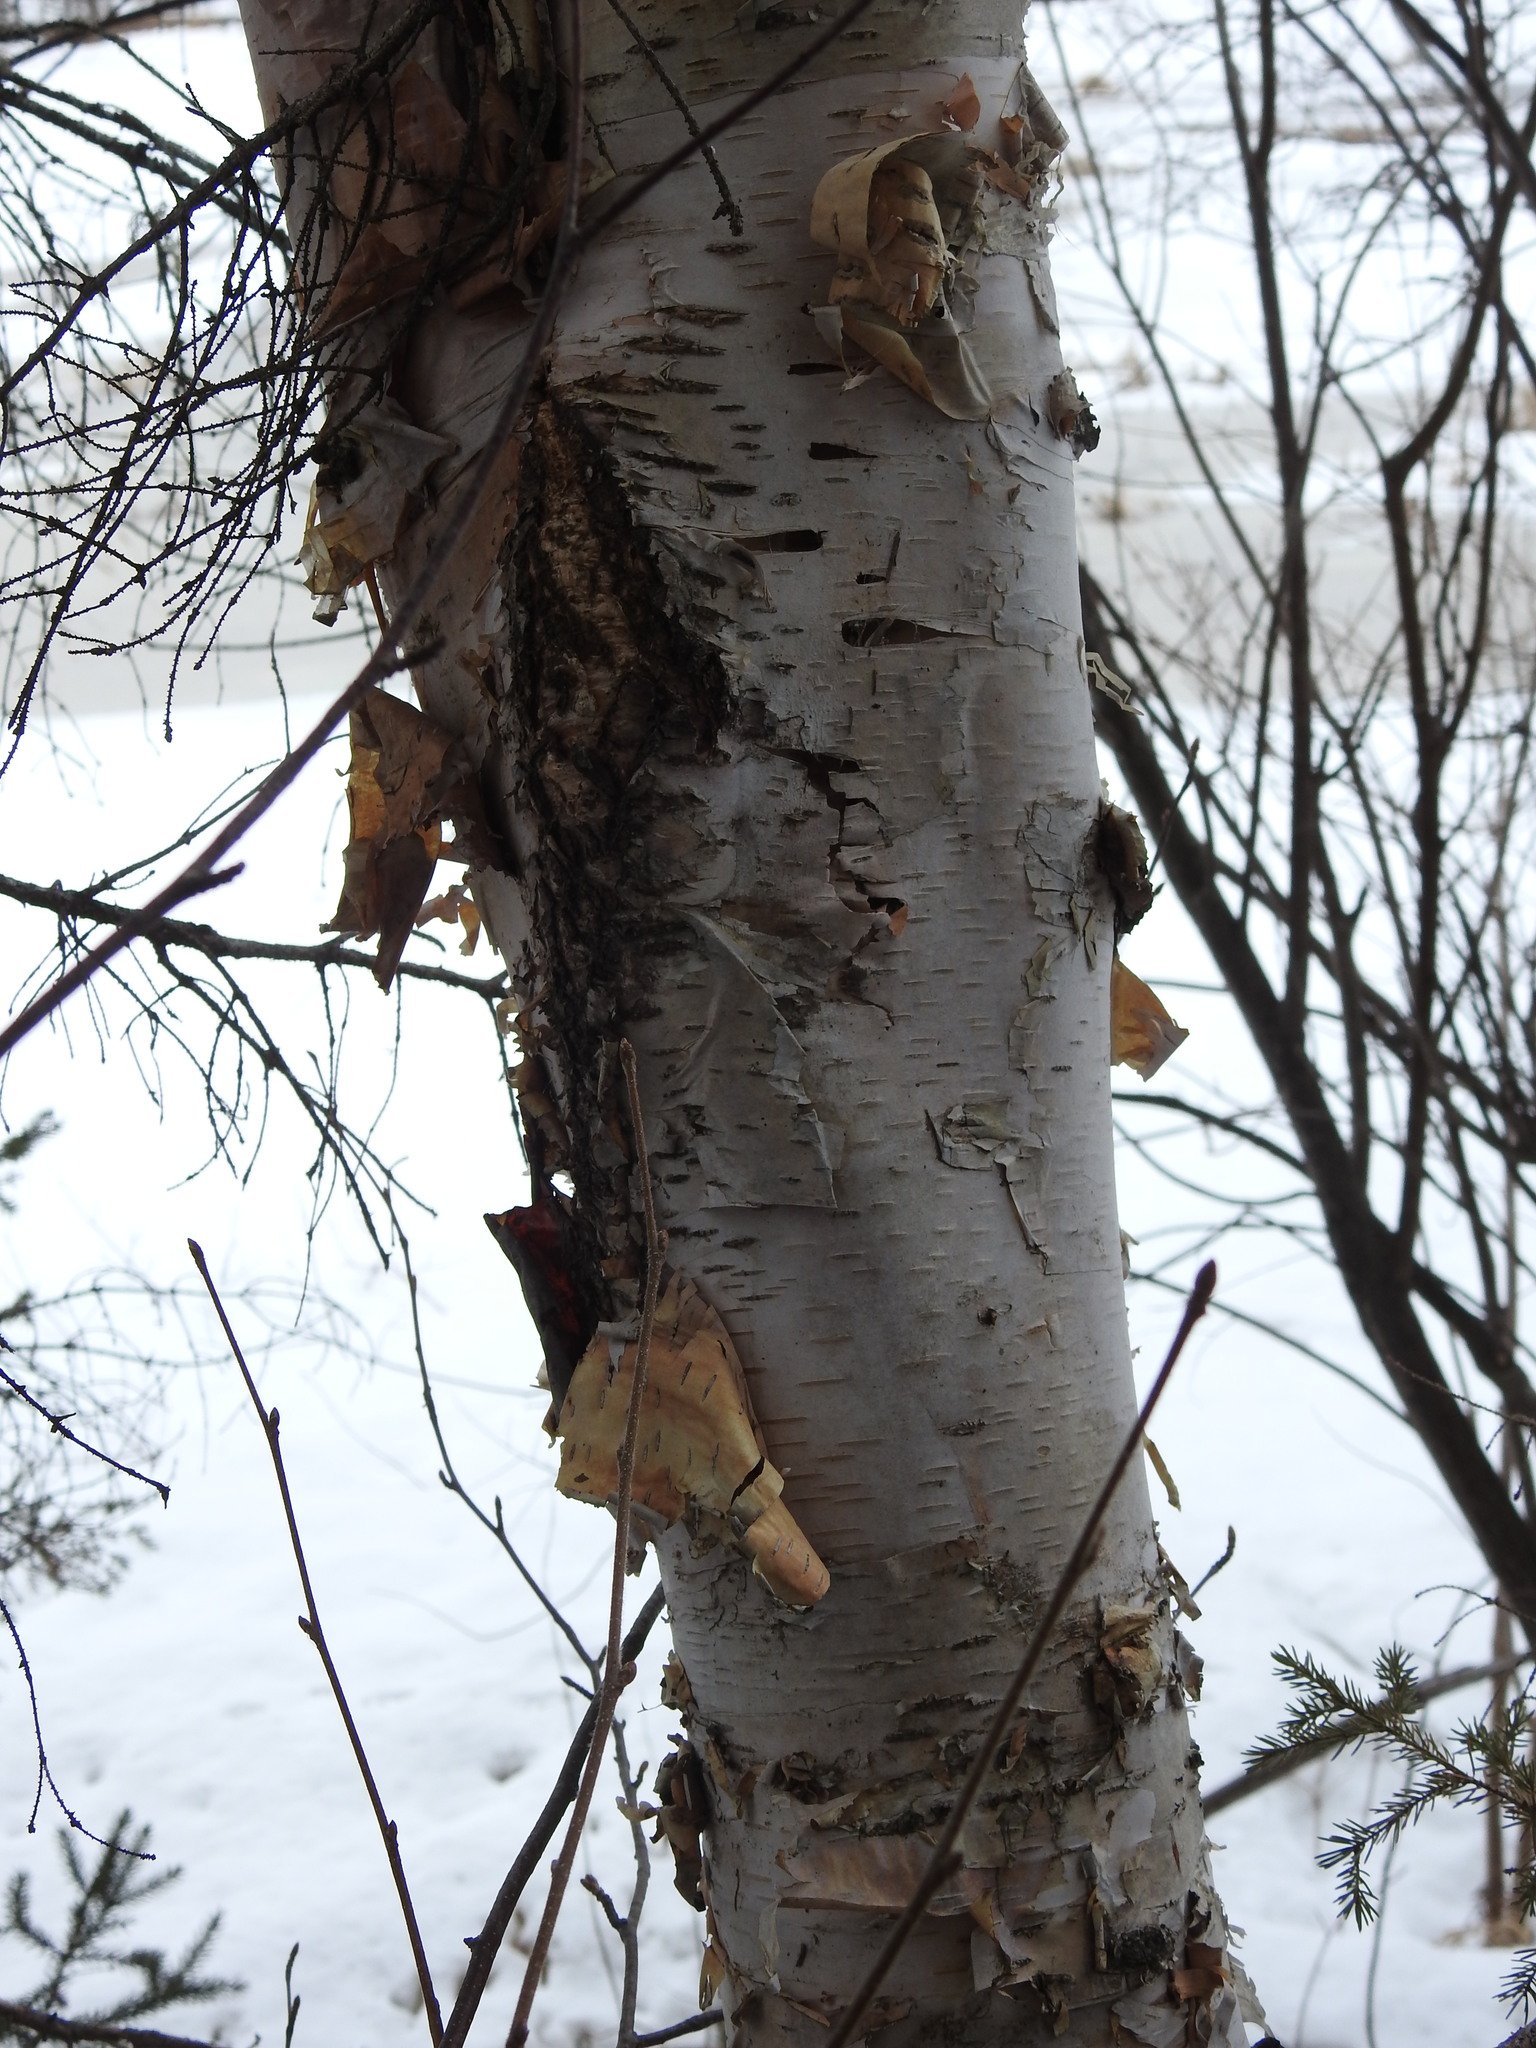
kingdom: Plantae
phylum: Tracheophyta
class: Magnoliopsida
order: Fagales
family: Betulaceae
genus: Betula
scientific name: Betula papyrifera
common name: Paper birch
